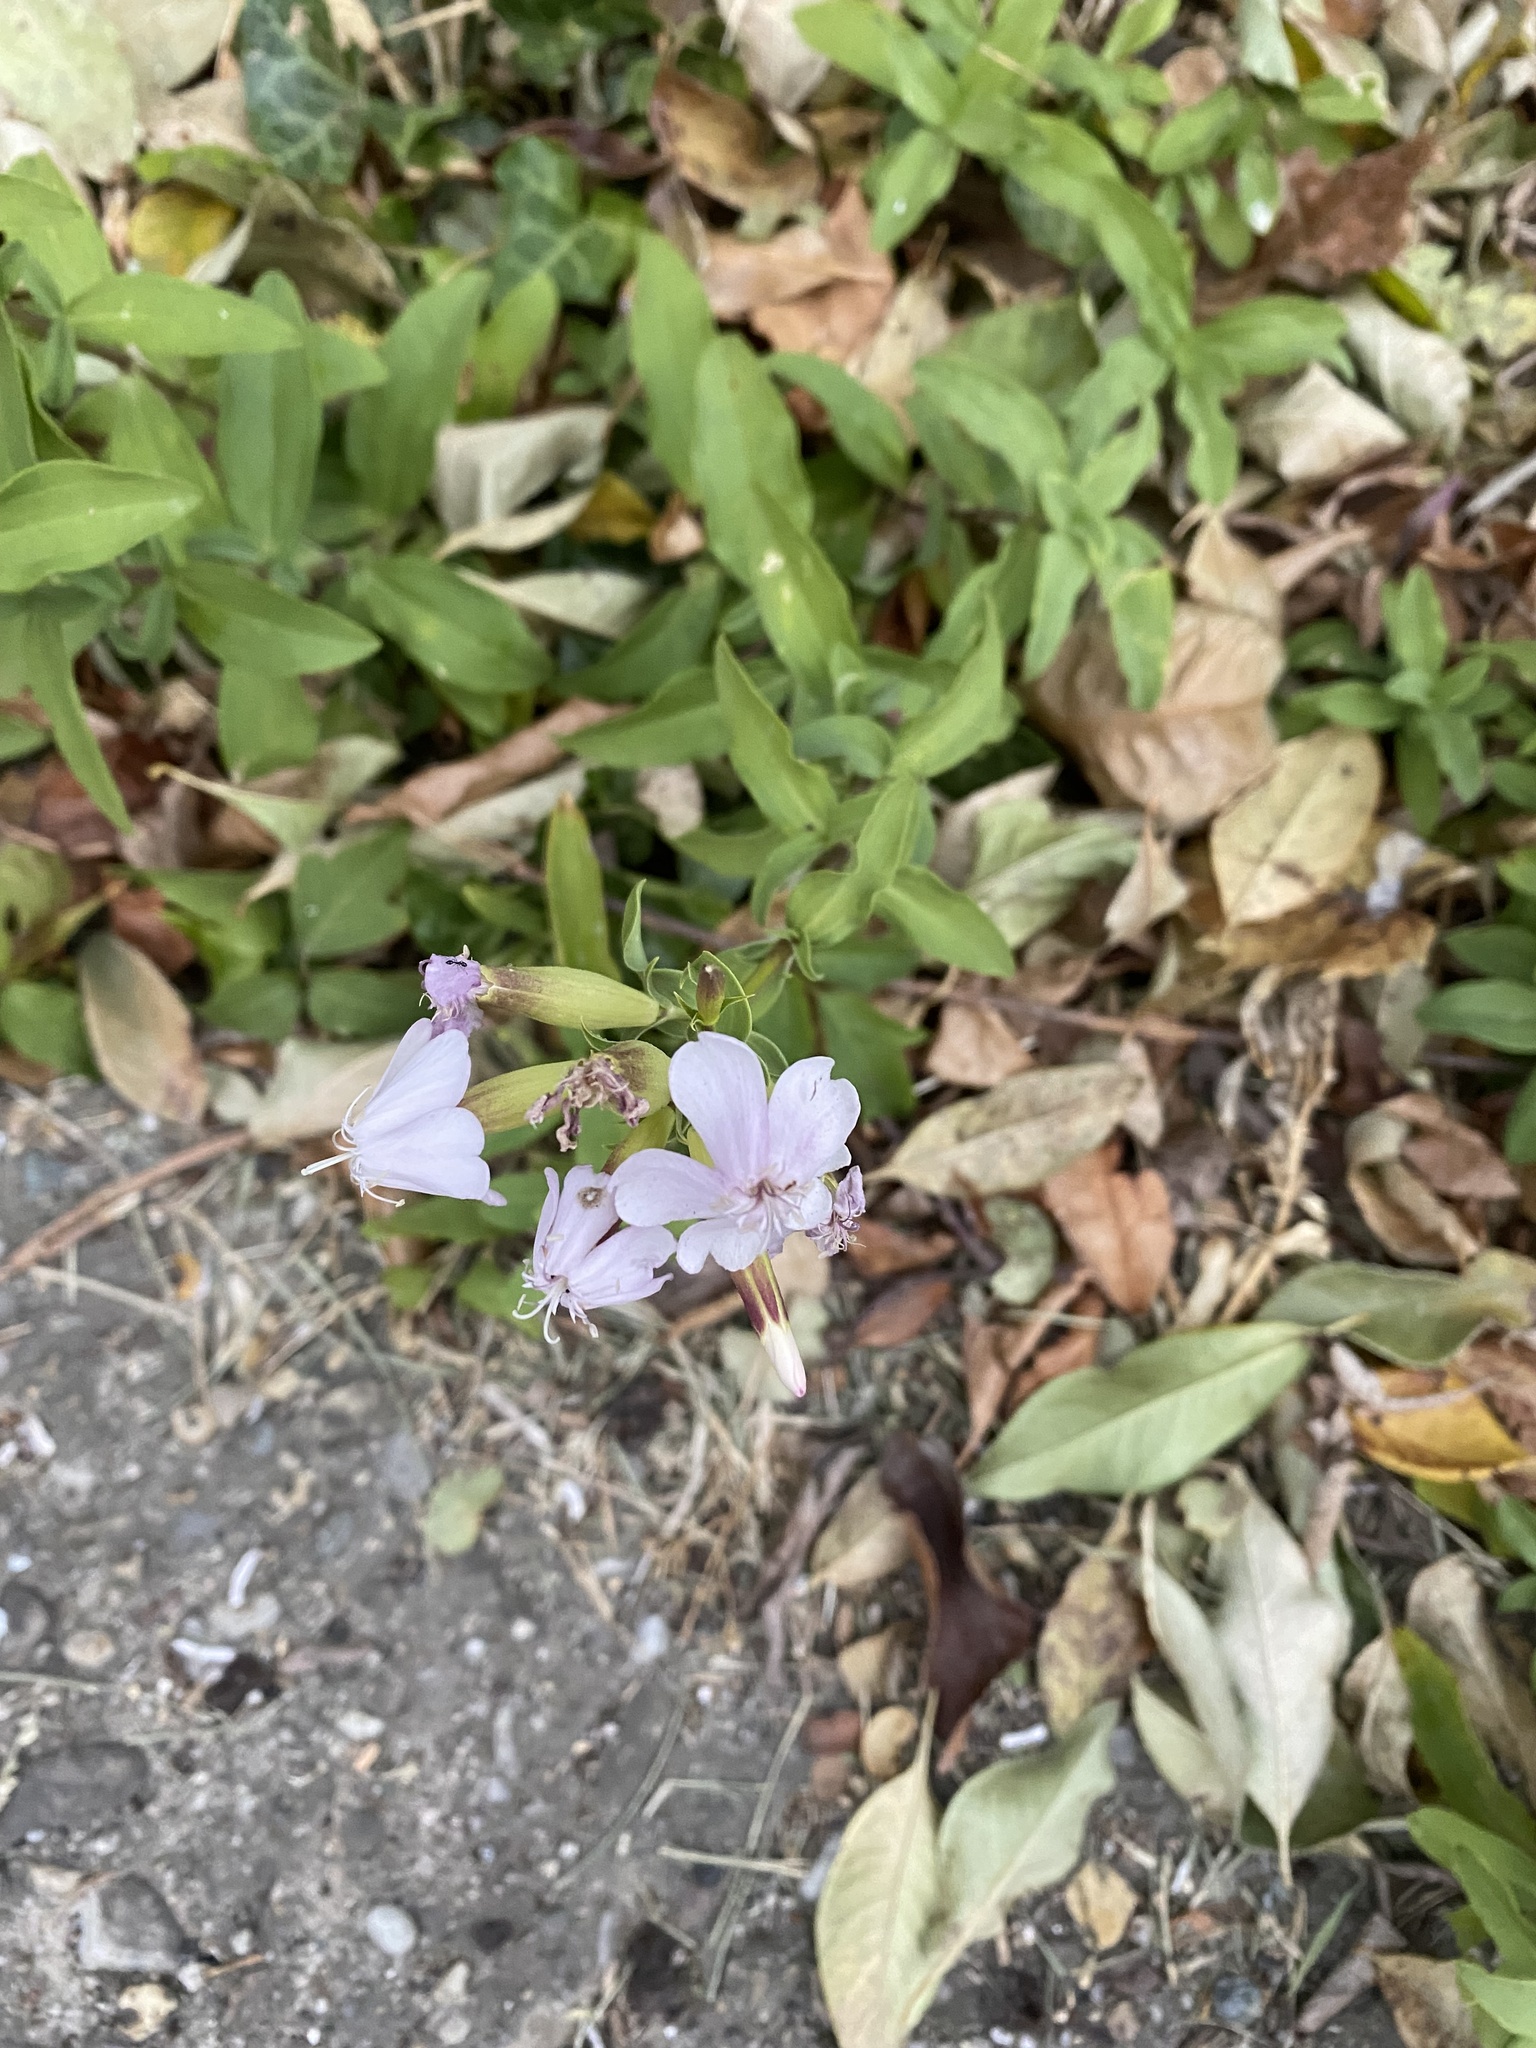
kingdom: Plantae
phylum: Tracheophyta
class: Magnoliopsida
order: Caryophyllales
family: Caryophyllaceae
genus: Saponaria
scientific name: Saponaria officinalis
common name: Soapwort
